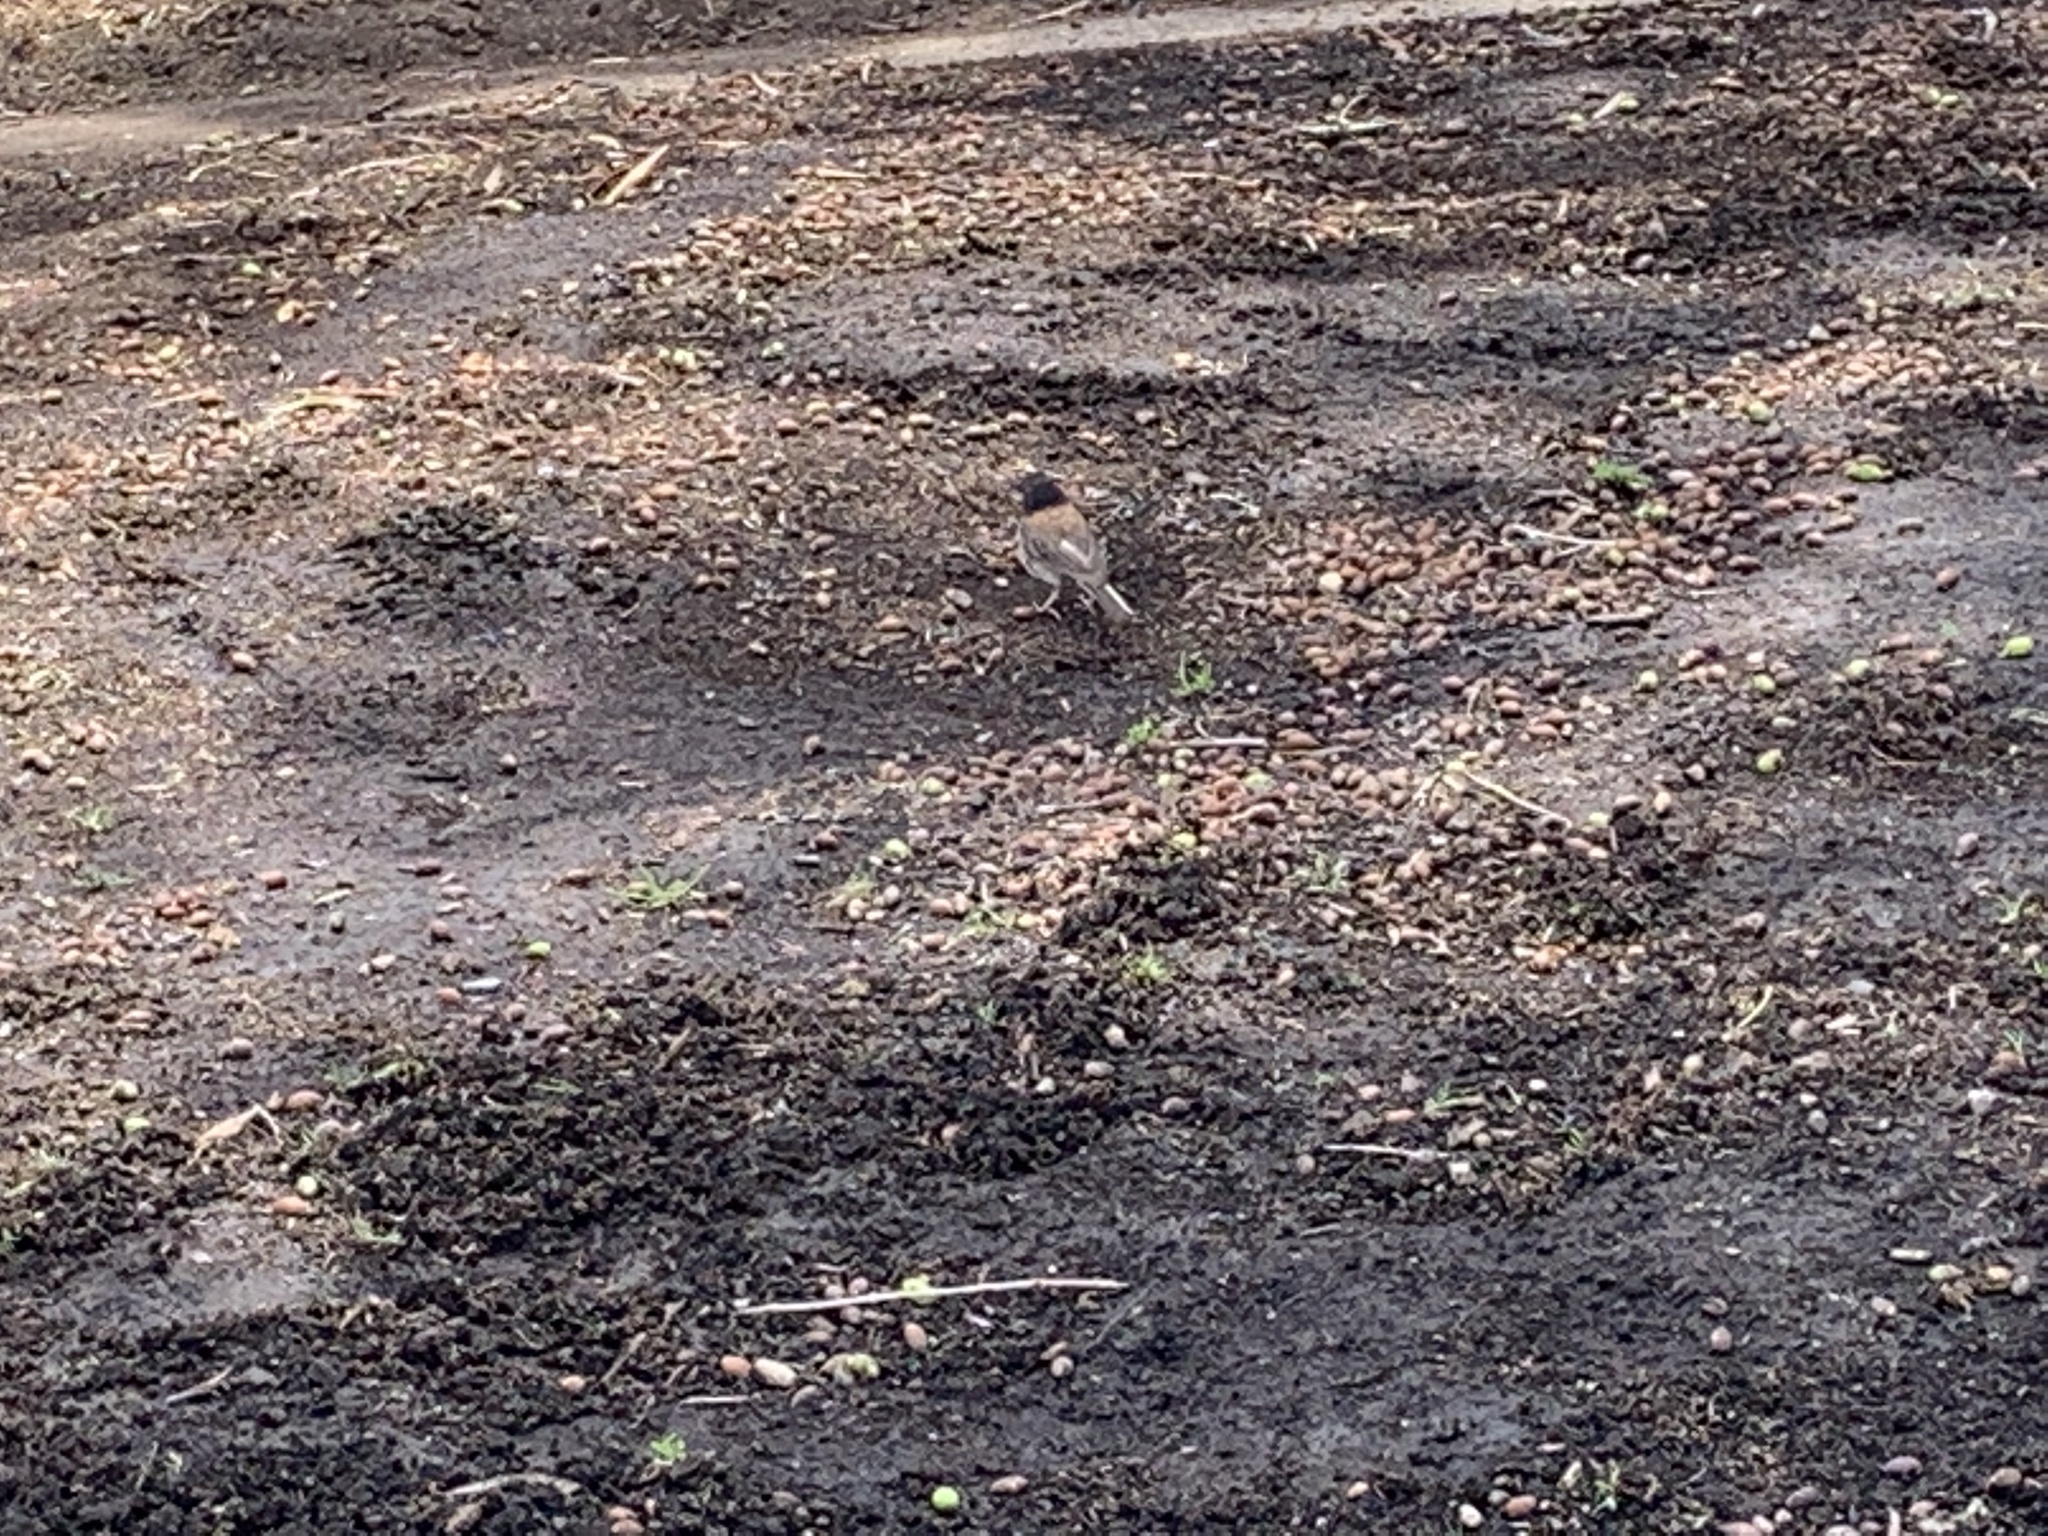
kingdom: Animalia
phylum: Chordata
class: Aves
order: Passeriformes
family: Passerellidae
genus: Junco
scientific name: Junco hyemalis
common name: Dark-eyed junco
